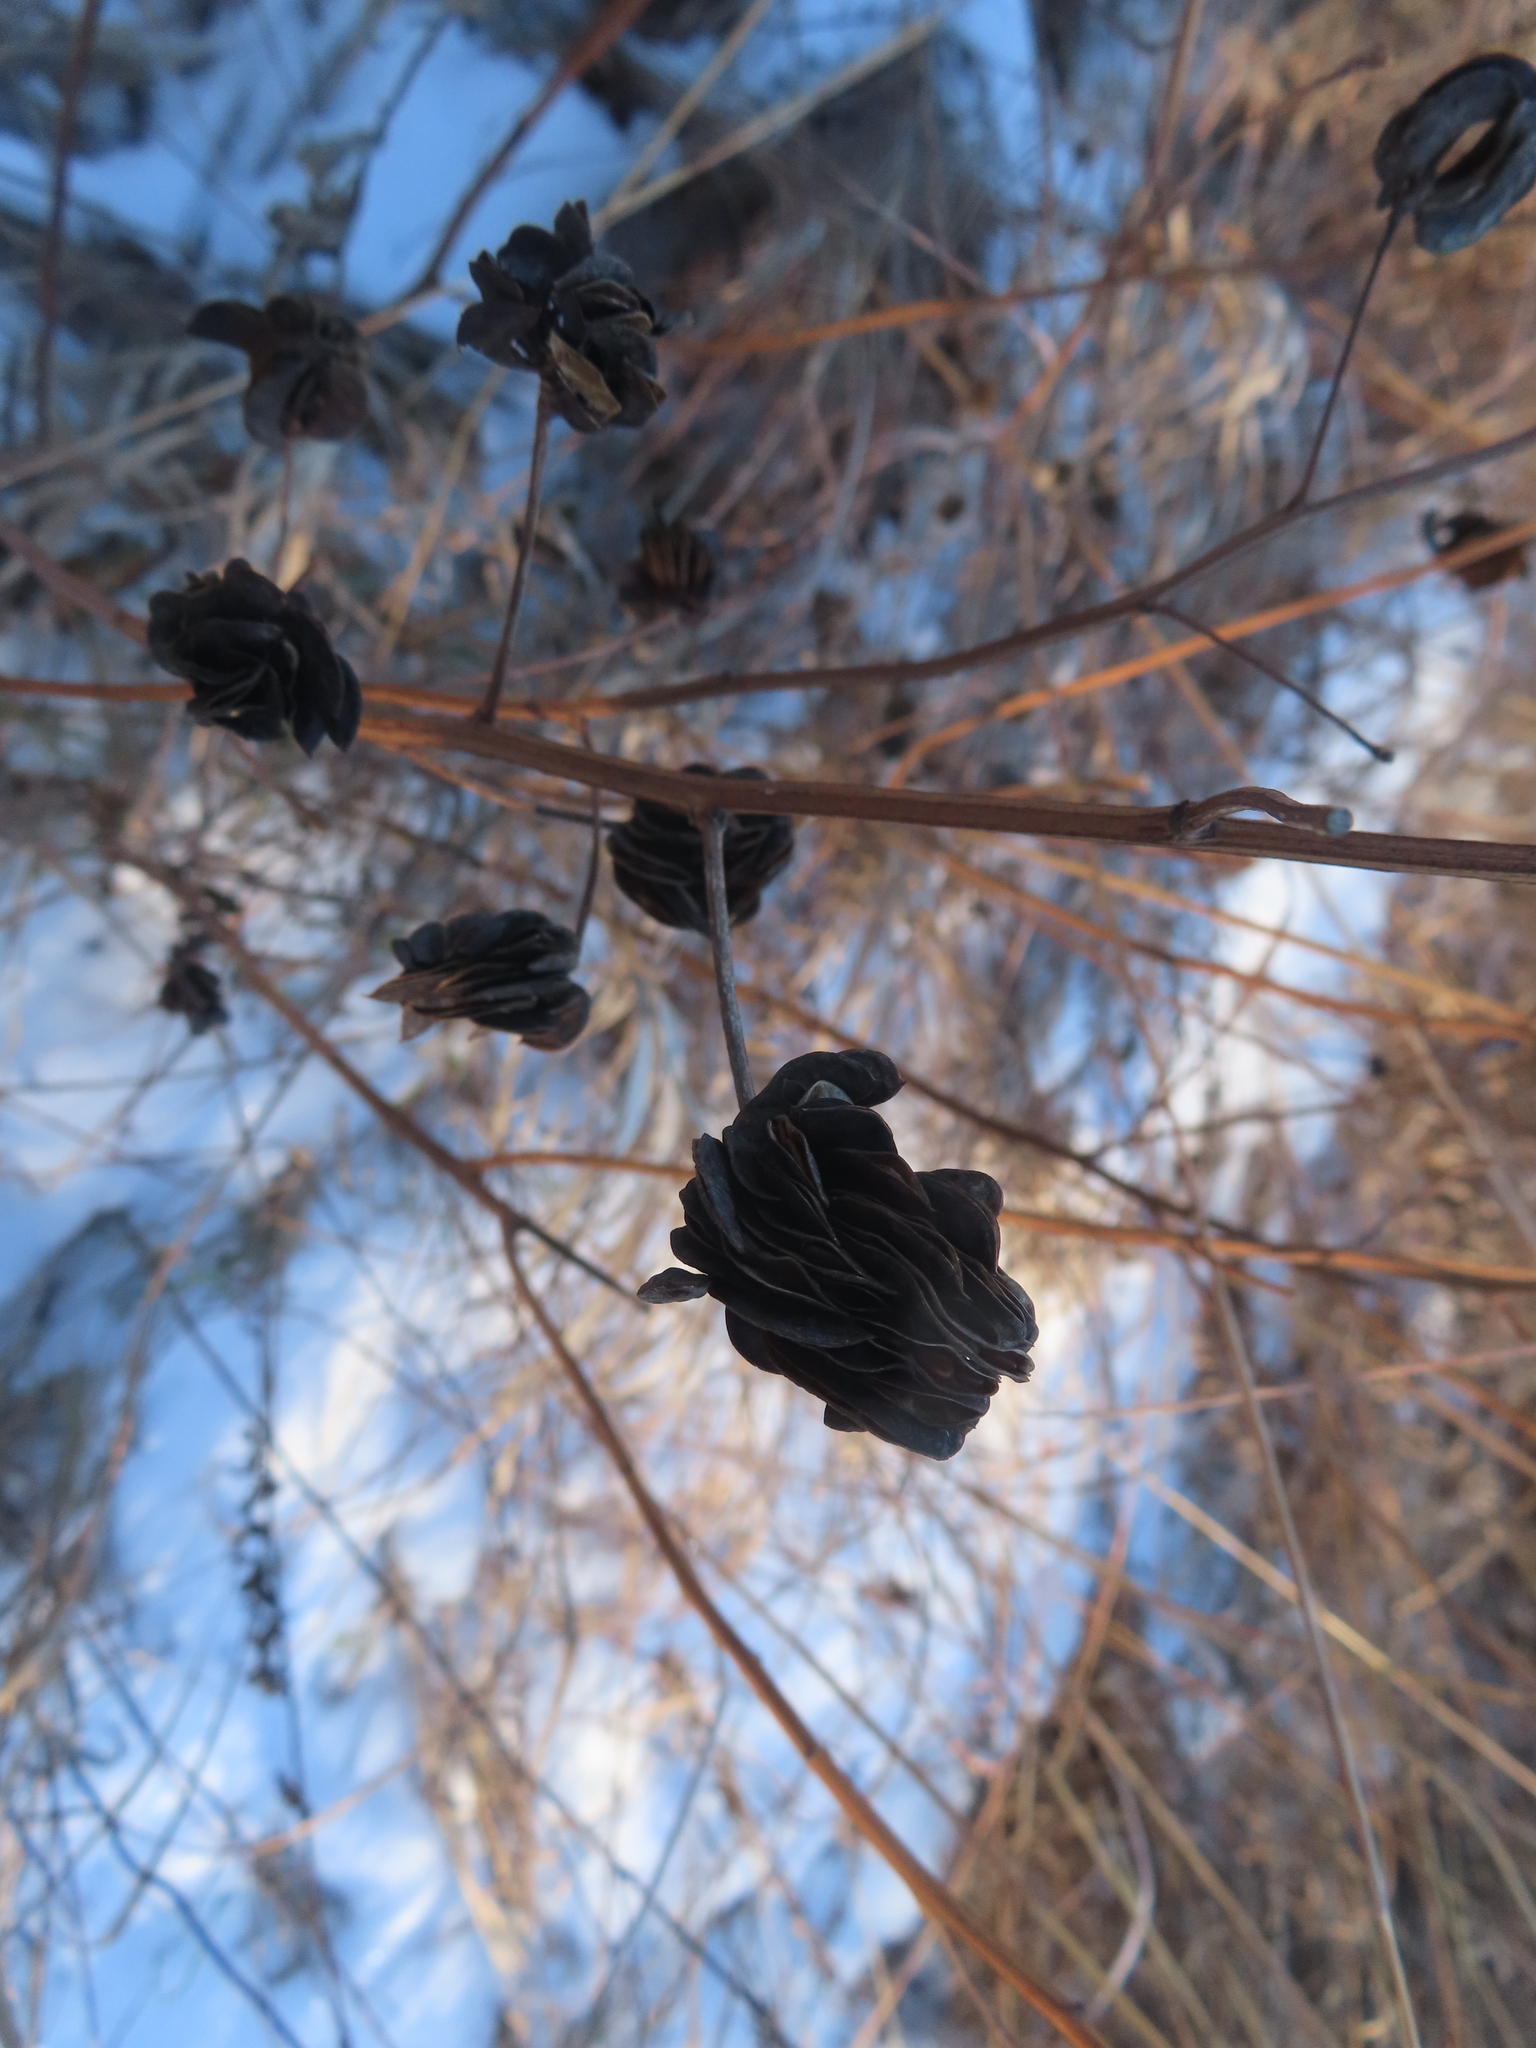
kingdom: Plantae
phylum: Tracheophyta
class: Magnoliopsida
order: Fabales
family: Fabaceae
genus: Desmanthus
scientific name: Desmanthus illinoensis
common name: Illinois bundle-flower
